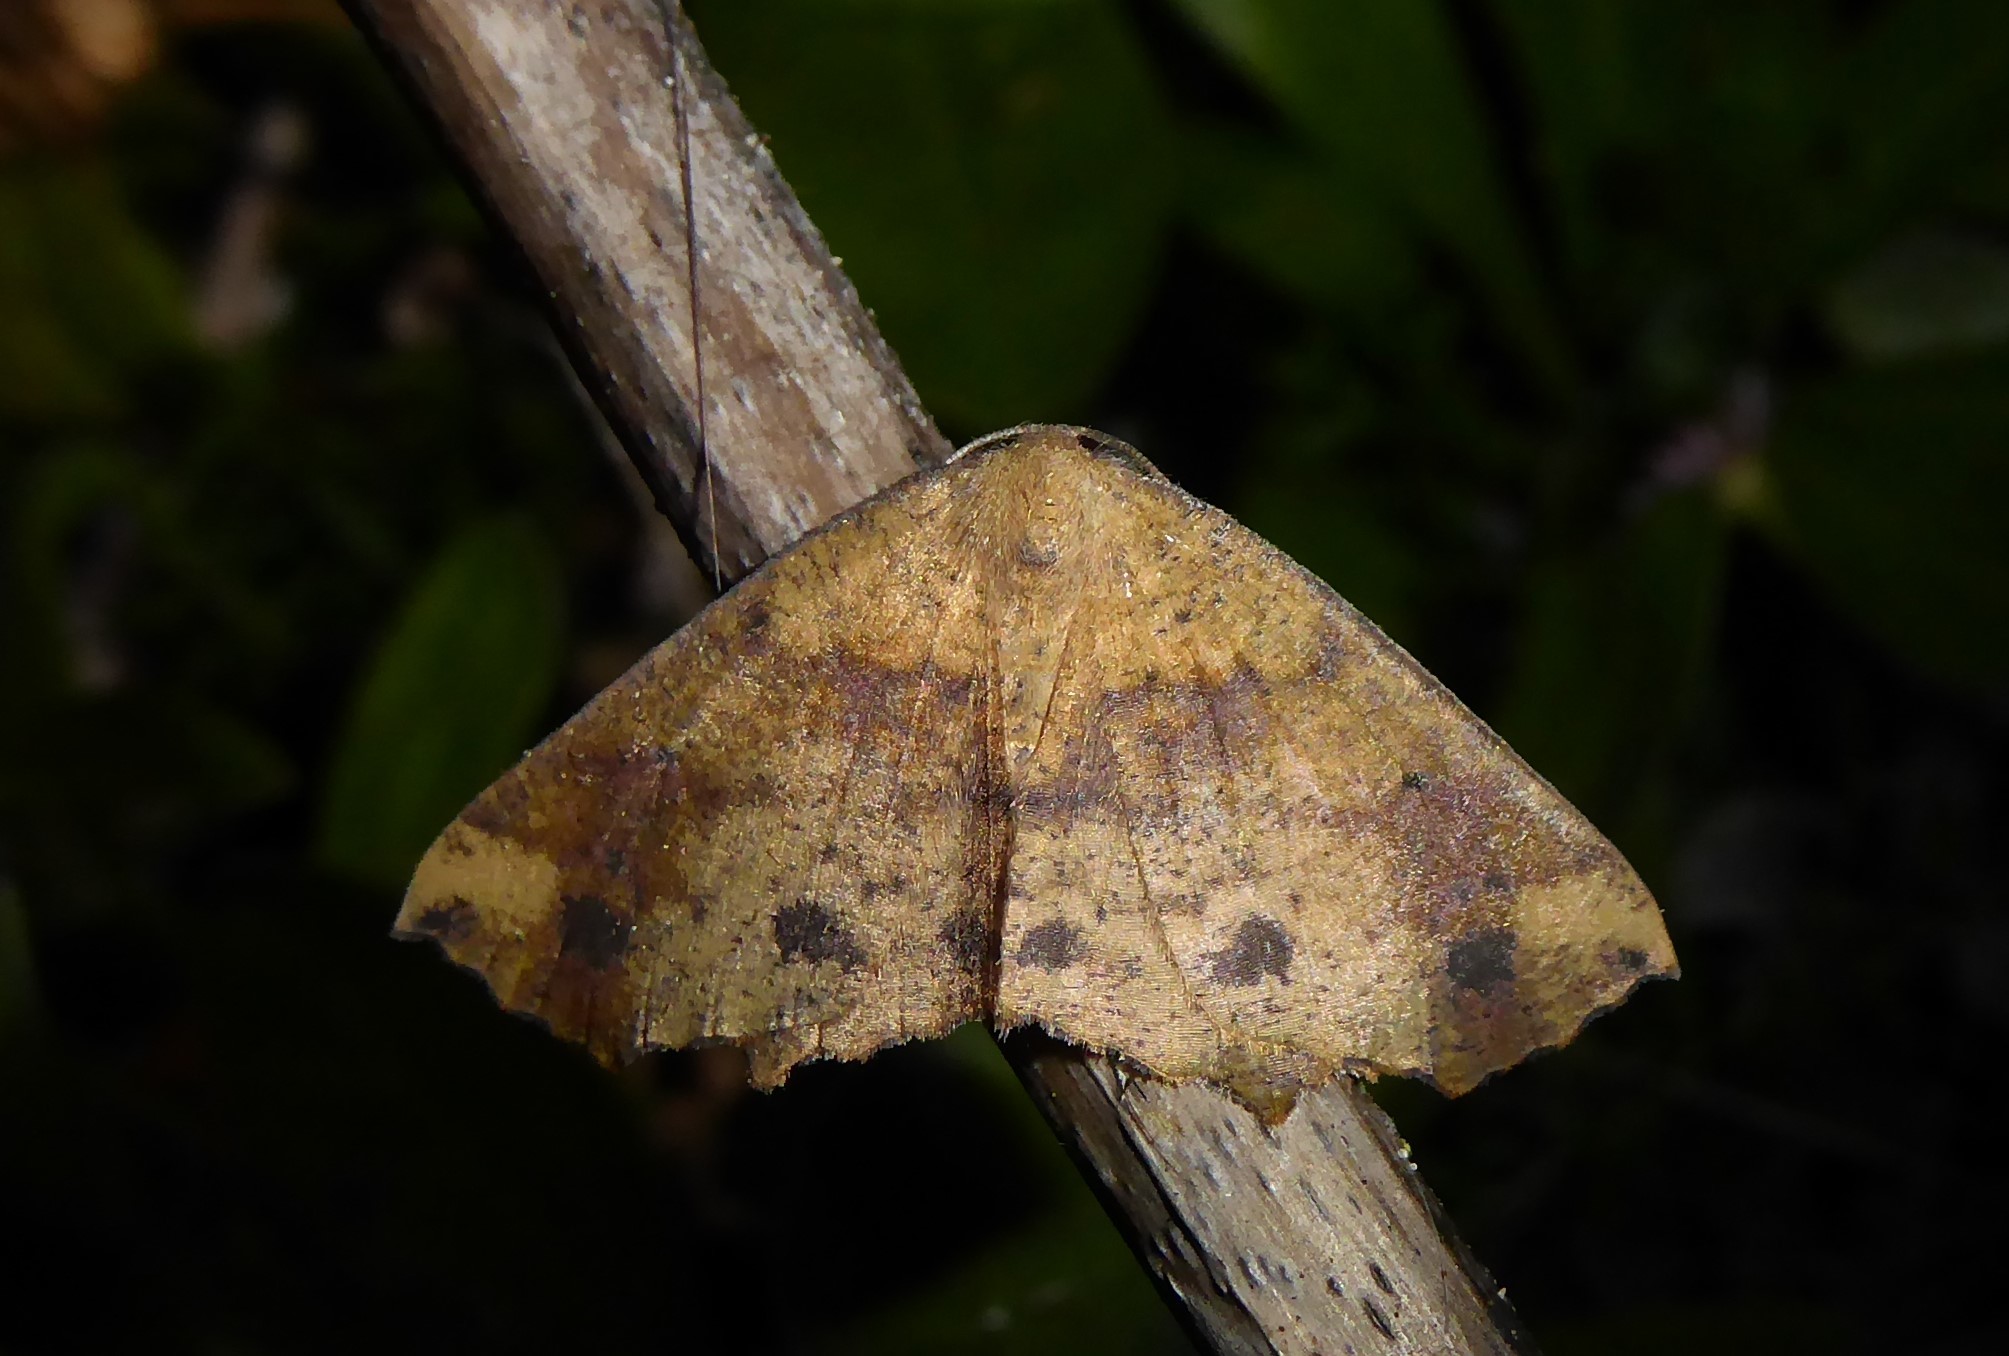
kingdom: Animalia
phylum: Arthropoda
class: Insecta
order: Lepidoptera
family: Geometridae
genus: Xyridacma
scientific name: Xyridacma ustaria
